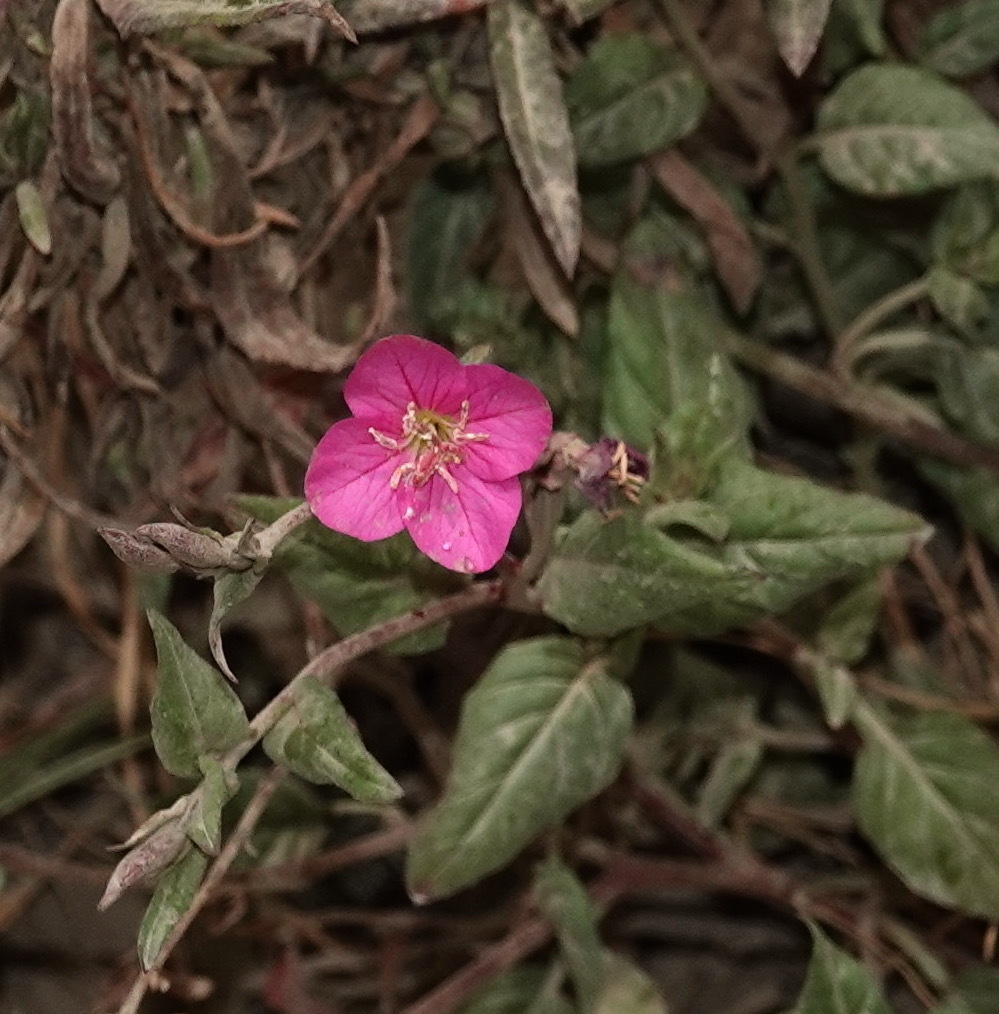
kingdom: Plantae
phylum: Tracheophyta
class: Magnoliopsida
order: Myrtales
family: Onagraceae
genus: Oenothera
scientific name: Oenothera rosea
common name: Rosy evening-primrose
